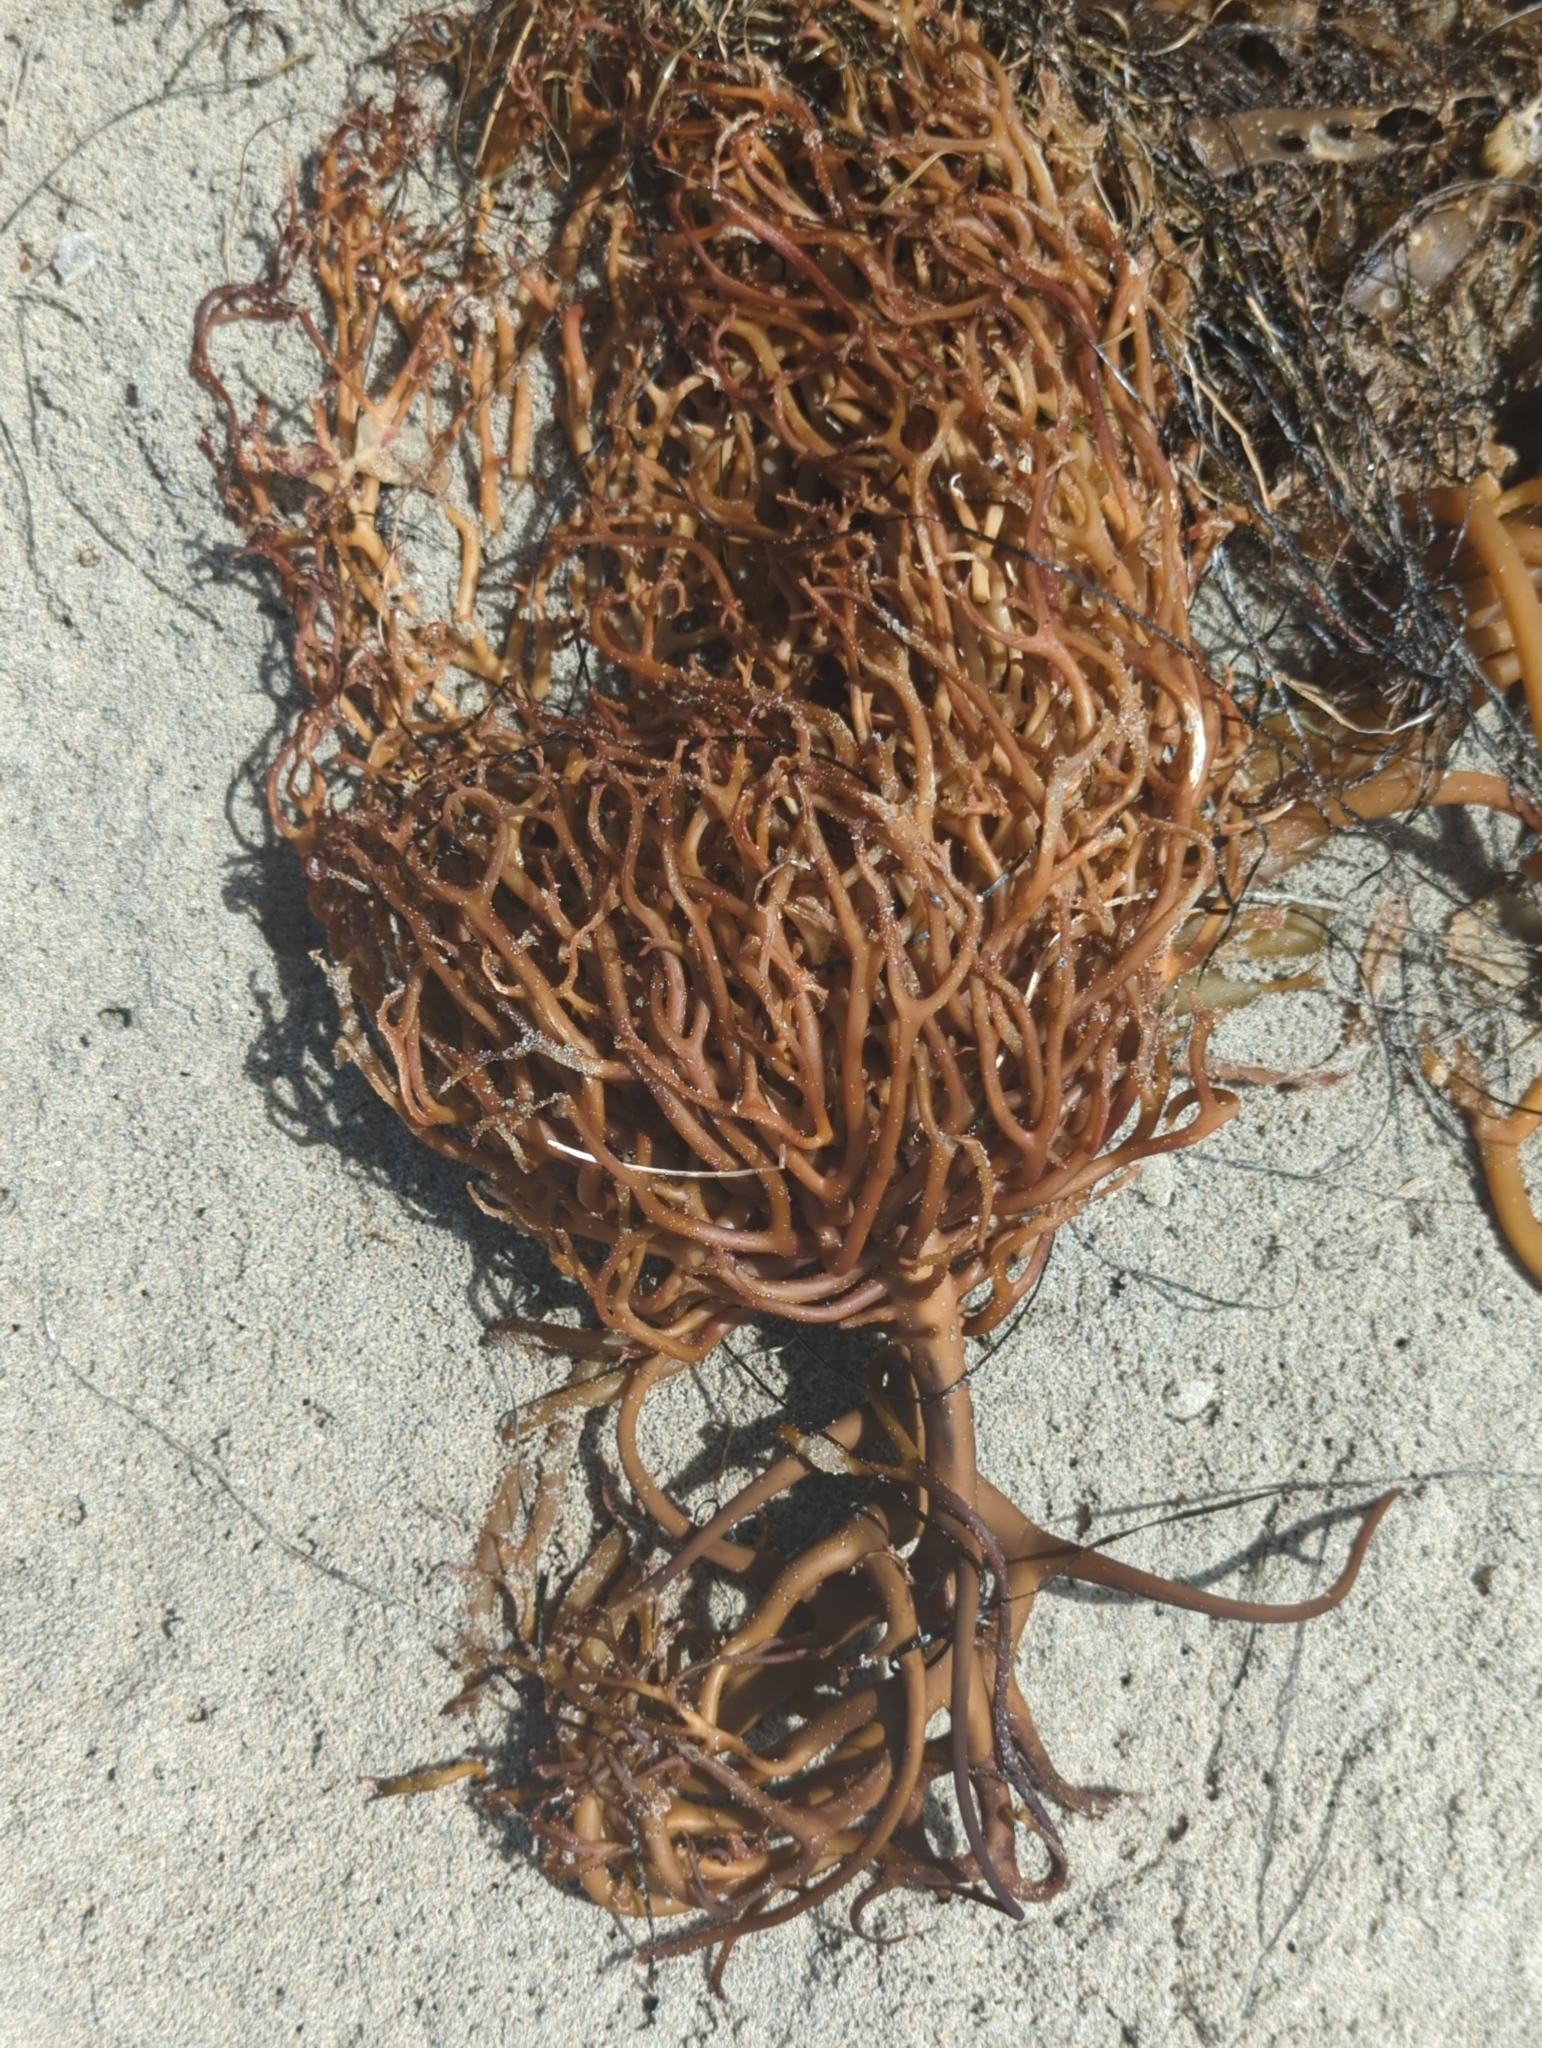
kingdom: Chromista
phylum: Ochrophyta
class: Phaeophyceae
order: Laminariales
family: Laminariaceae
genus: Macrocystis
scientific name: Macrocystis pyrifera
